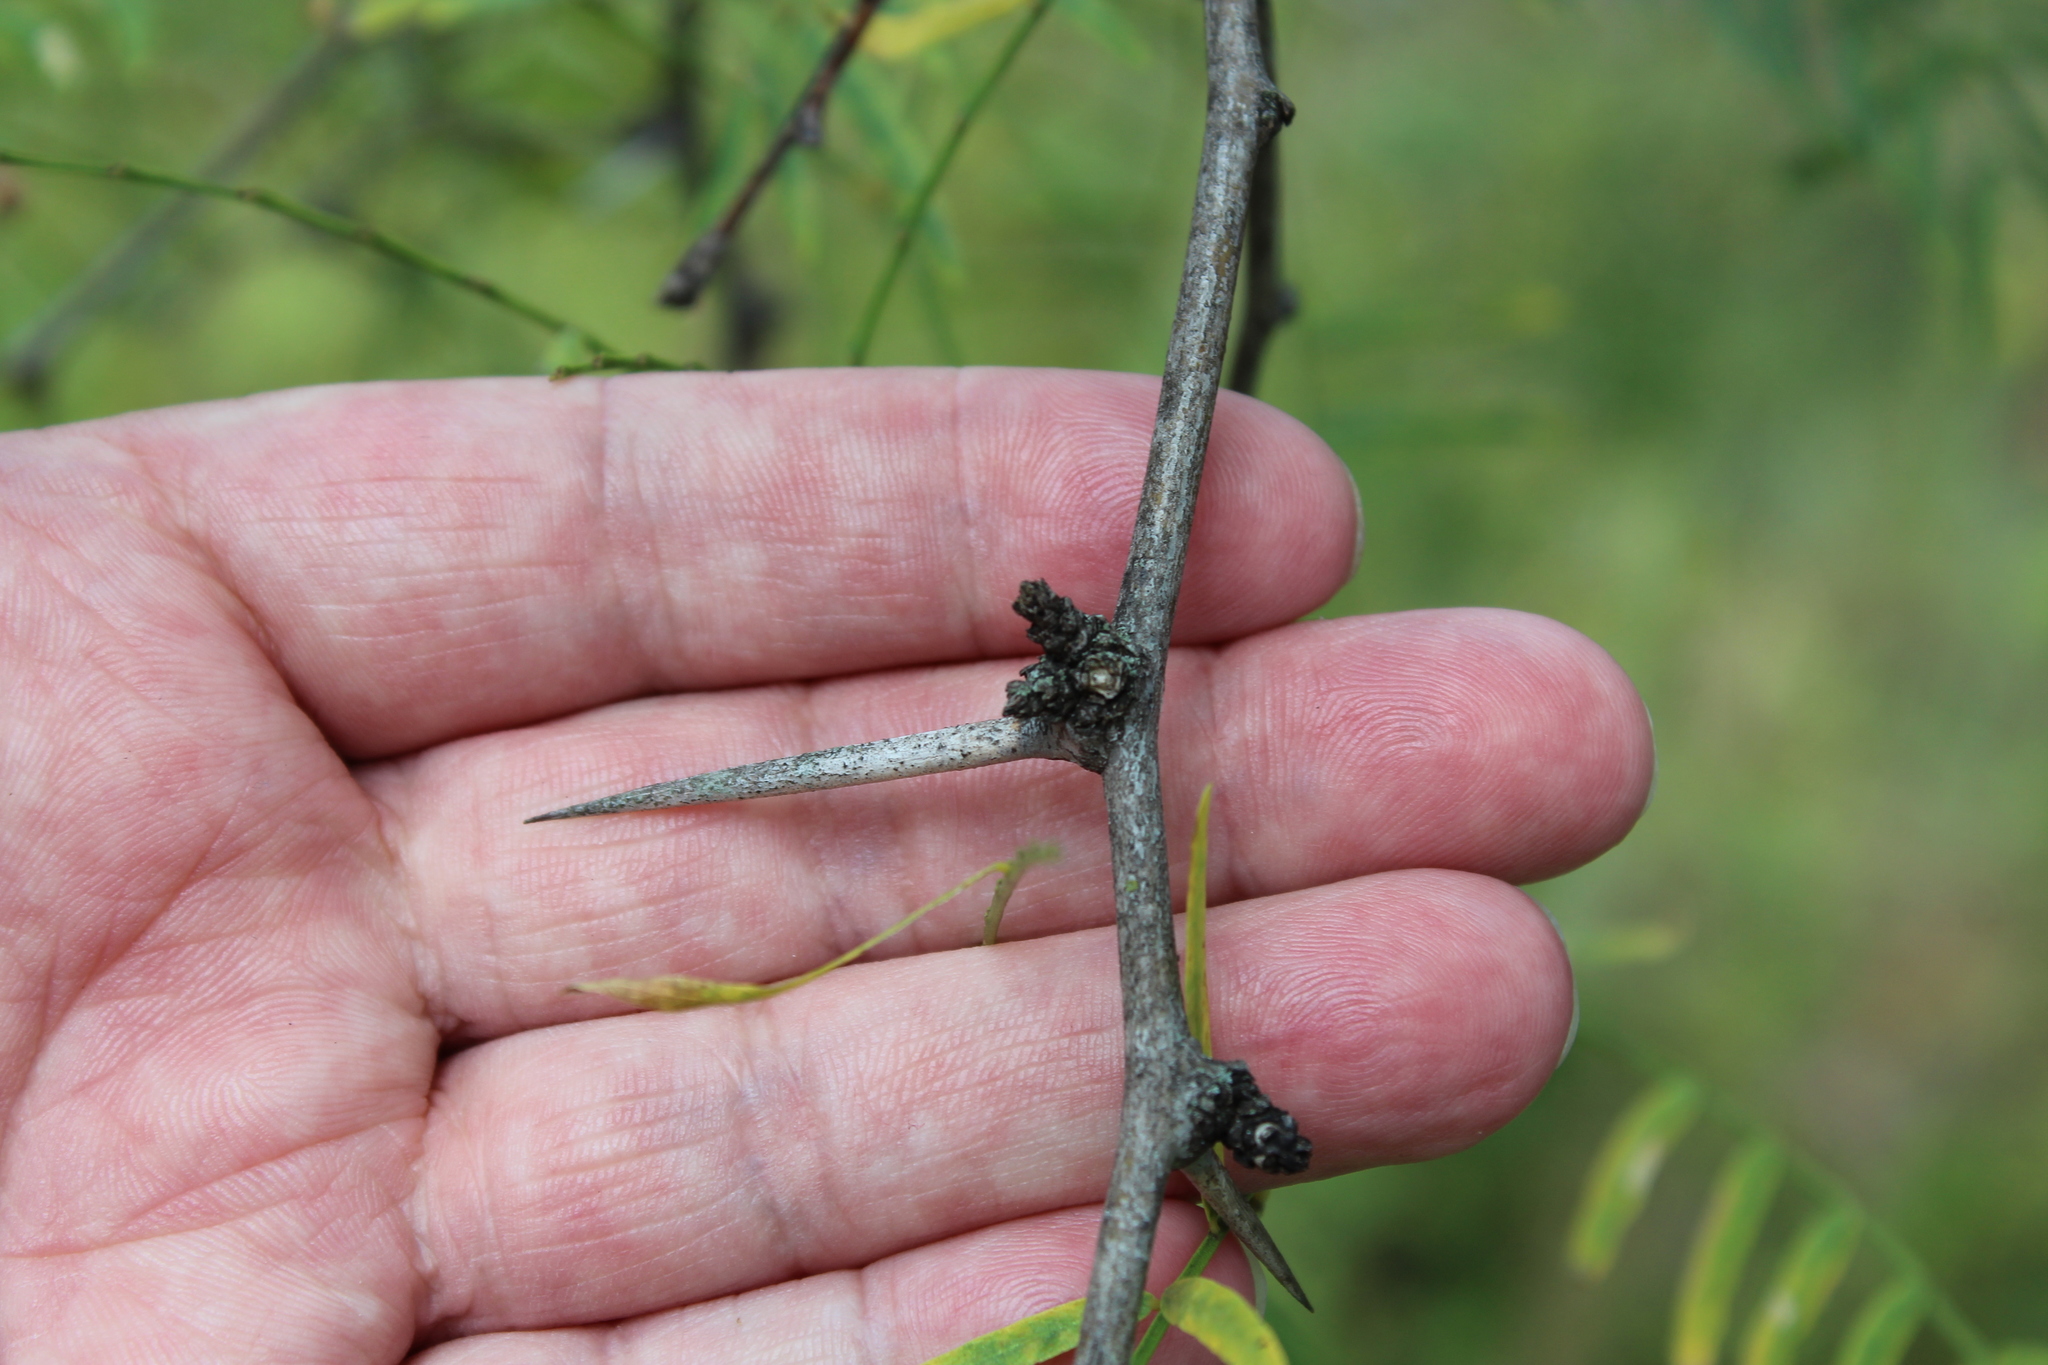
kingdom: Plantae
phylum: Tracheophyta
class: Magnoliopsida
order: Fabales
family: Fabaceae
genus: Prosopis
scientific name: Prosopis glandulosa
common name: Honey mesquite
